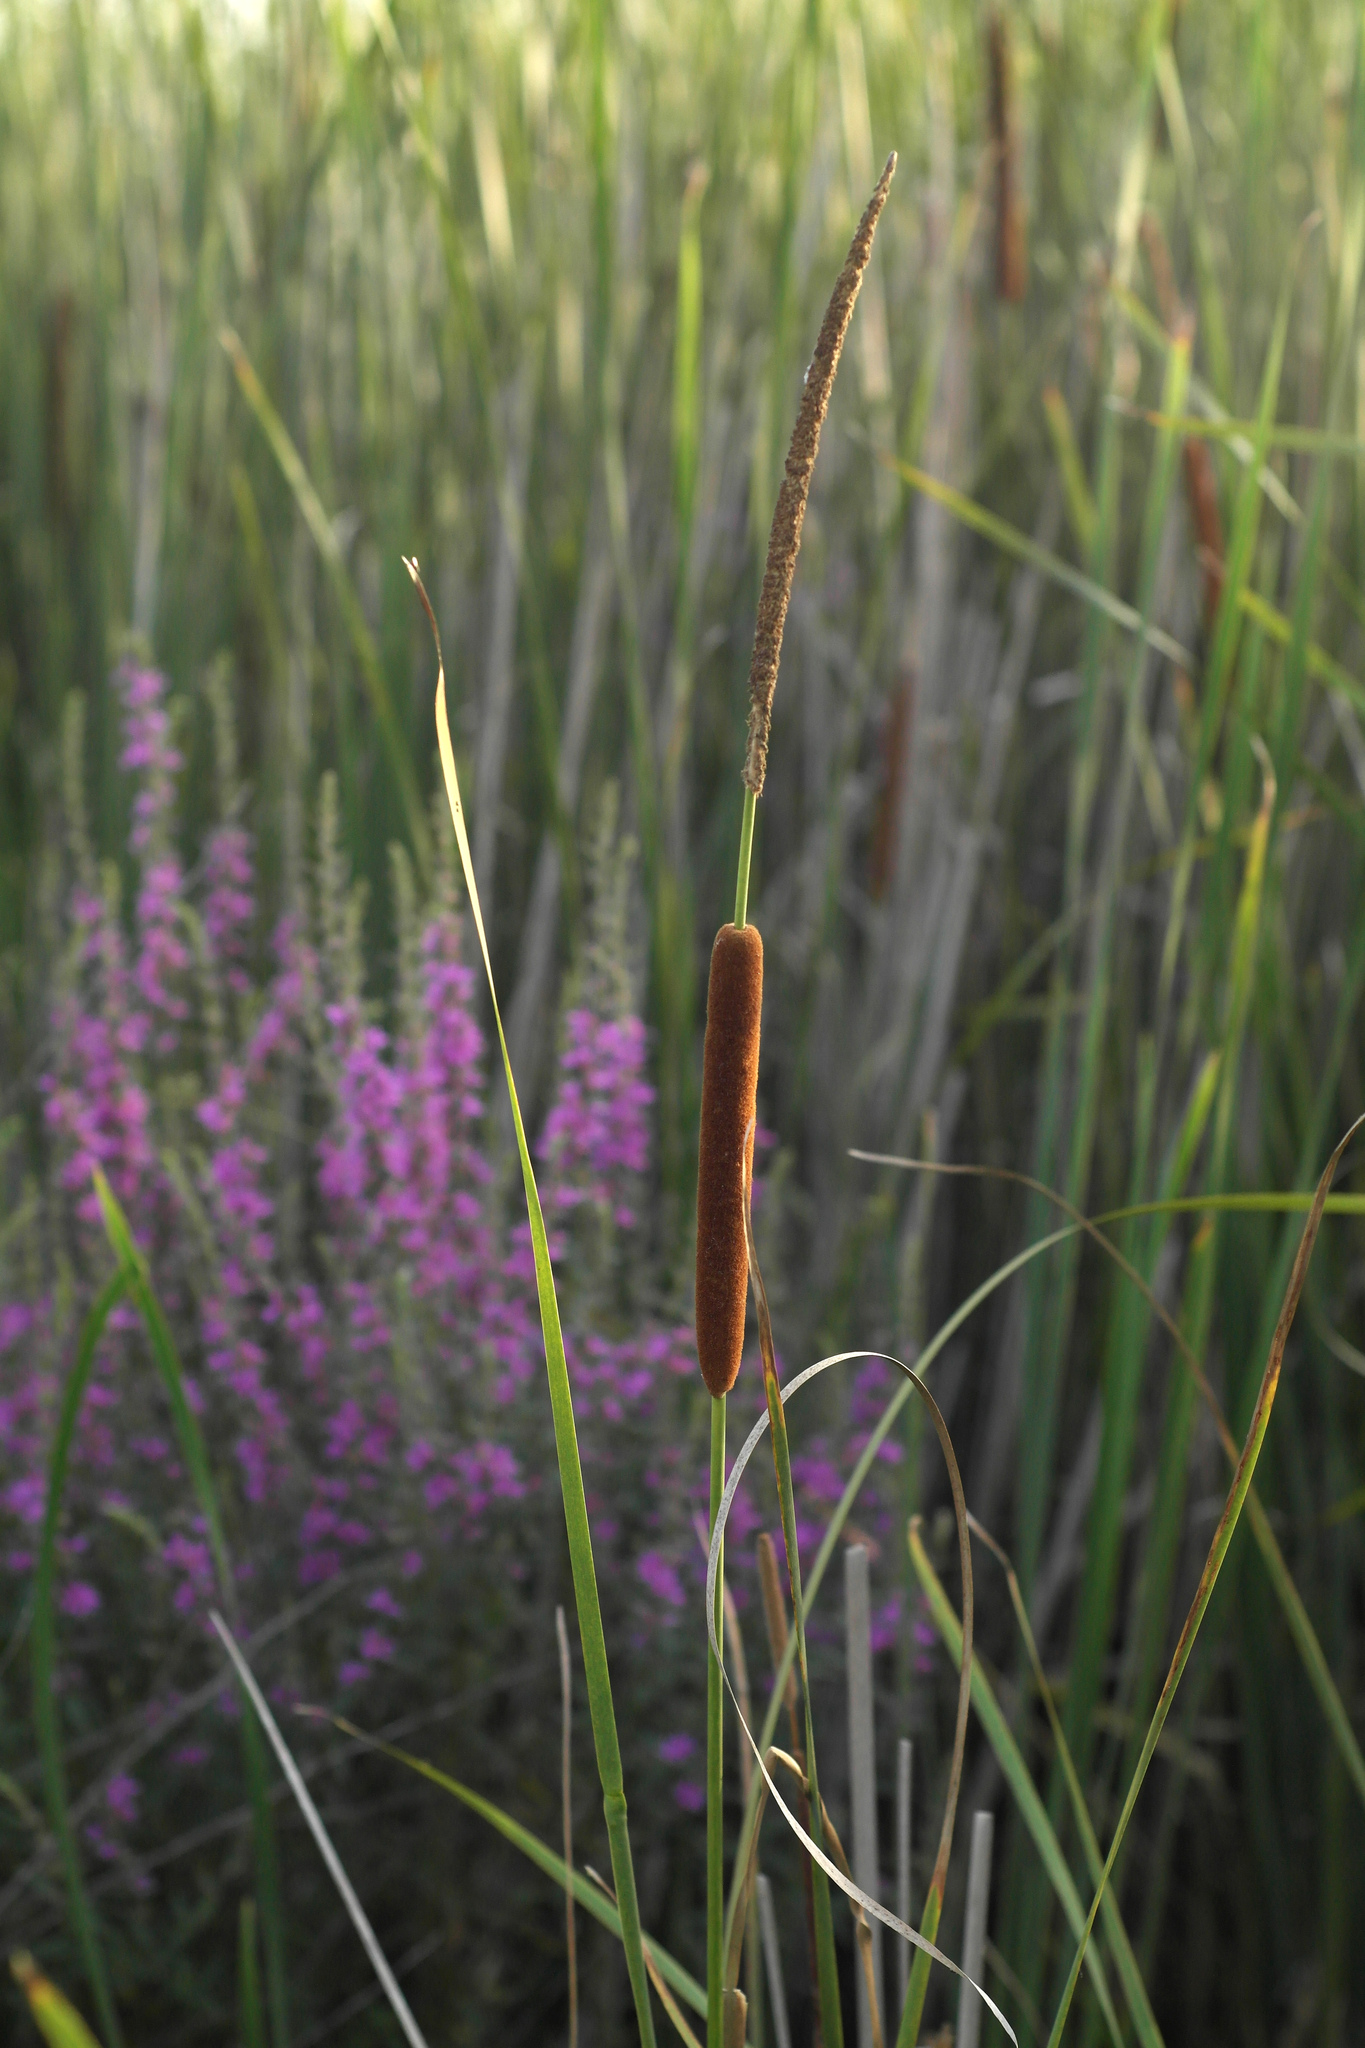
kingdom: Plantae
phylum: Tracheophyta
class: Liliopsida
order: Poales
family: Typhaceae
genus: Typha
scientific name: Typha angustifolia
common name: Lesser bulrush
